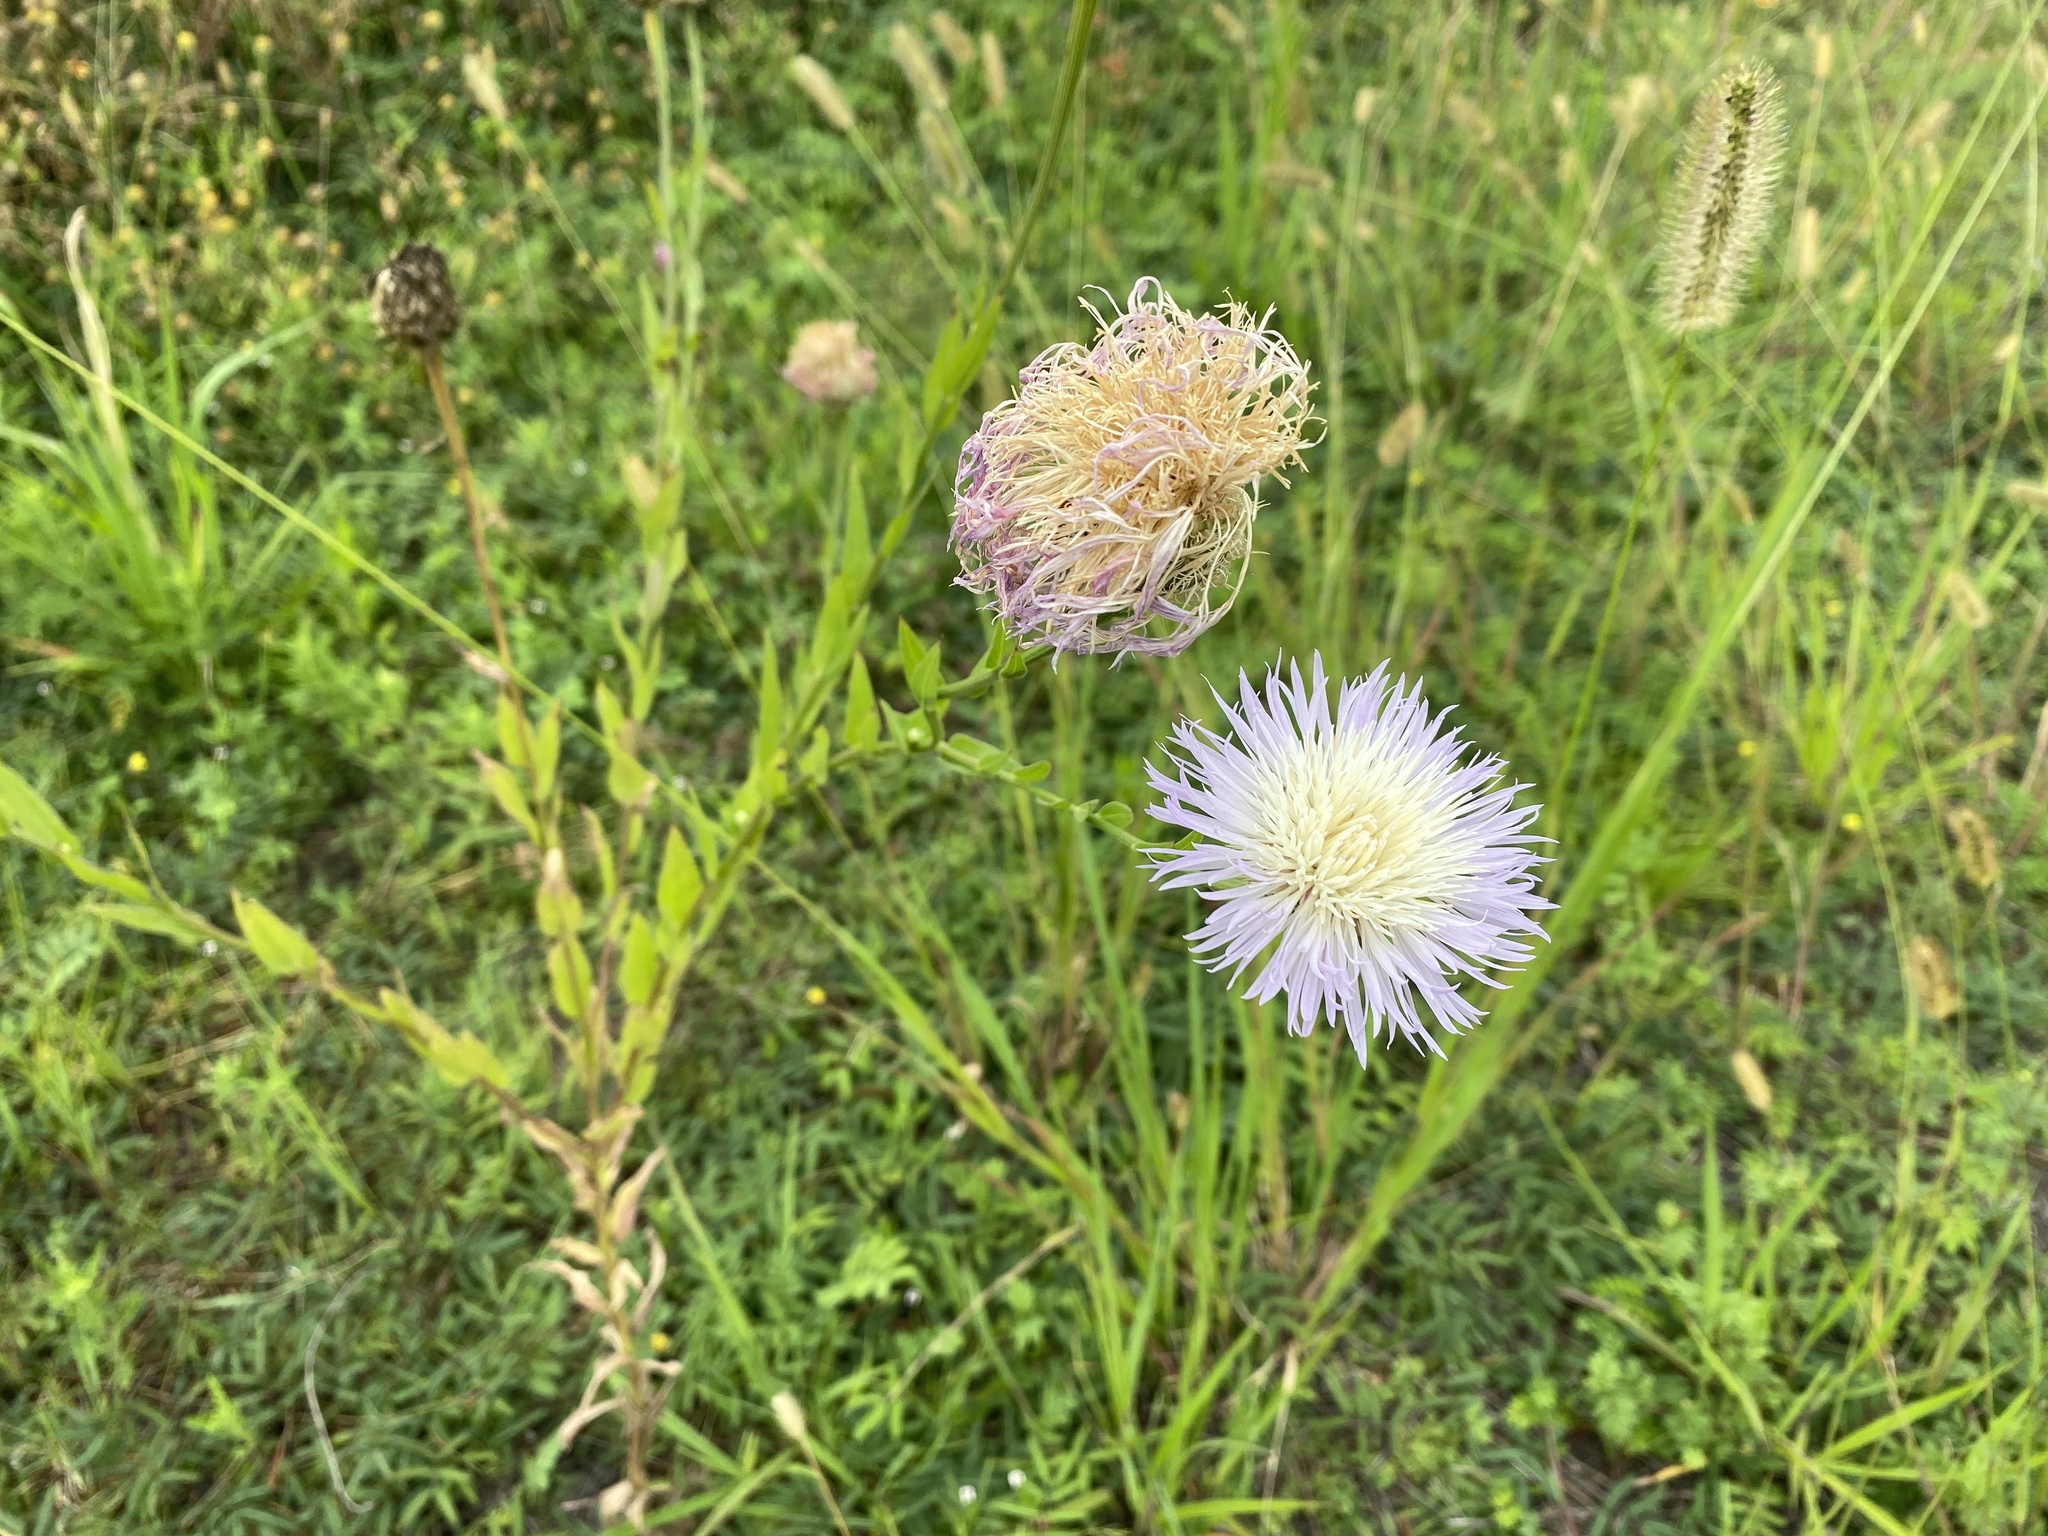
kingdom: Plantae
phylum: Tracheophyta
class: Magnoliopsida
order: Asterales
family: Asteraceae
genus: Plectocephalus
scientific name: Plectocephalus americanus
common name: American basket-flower
